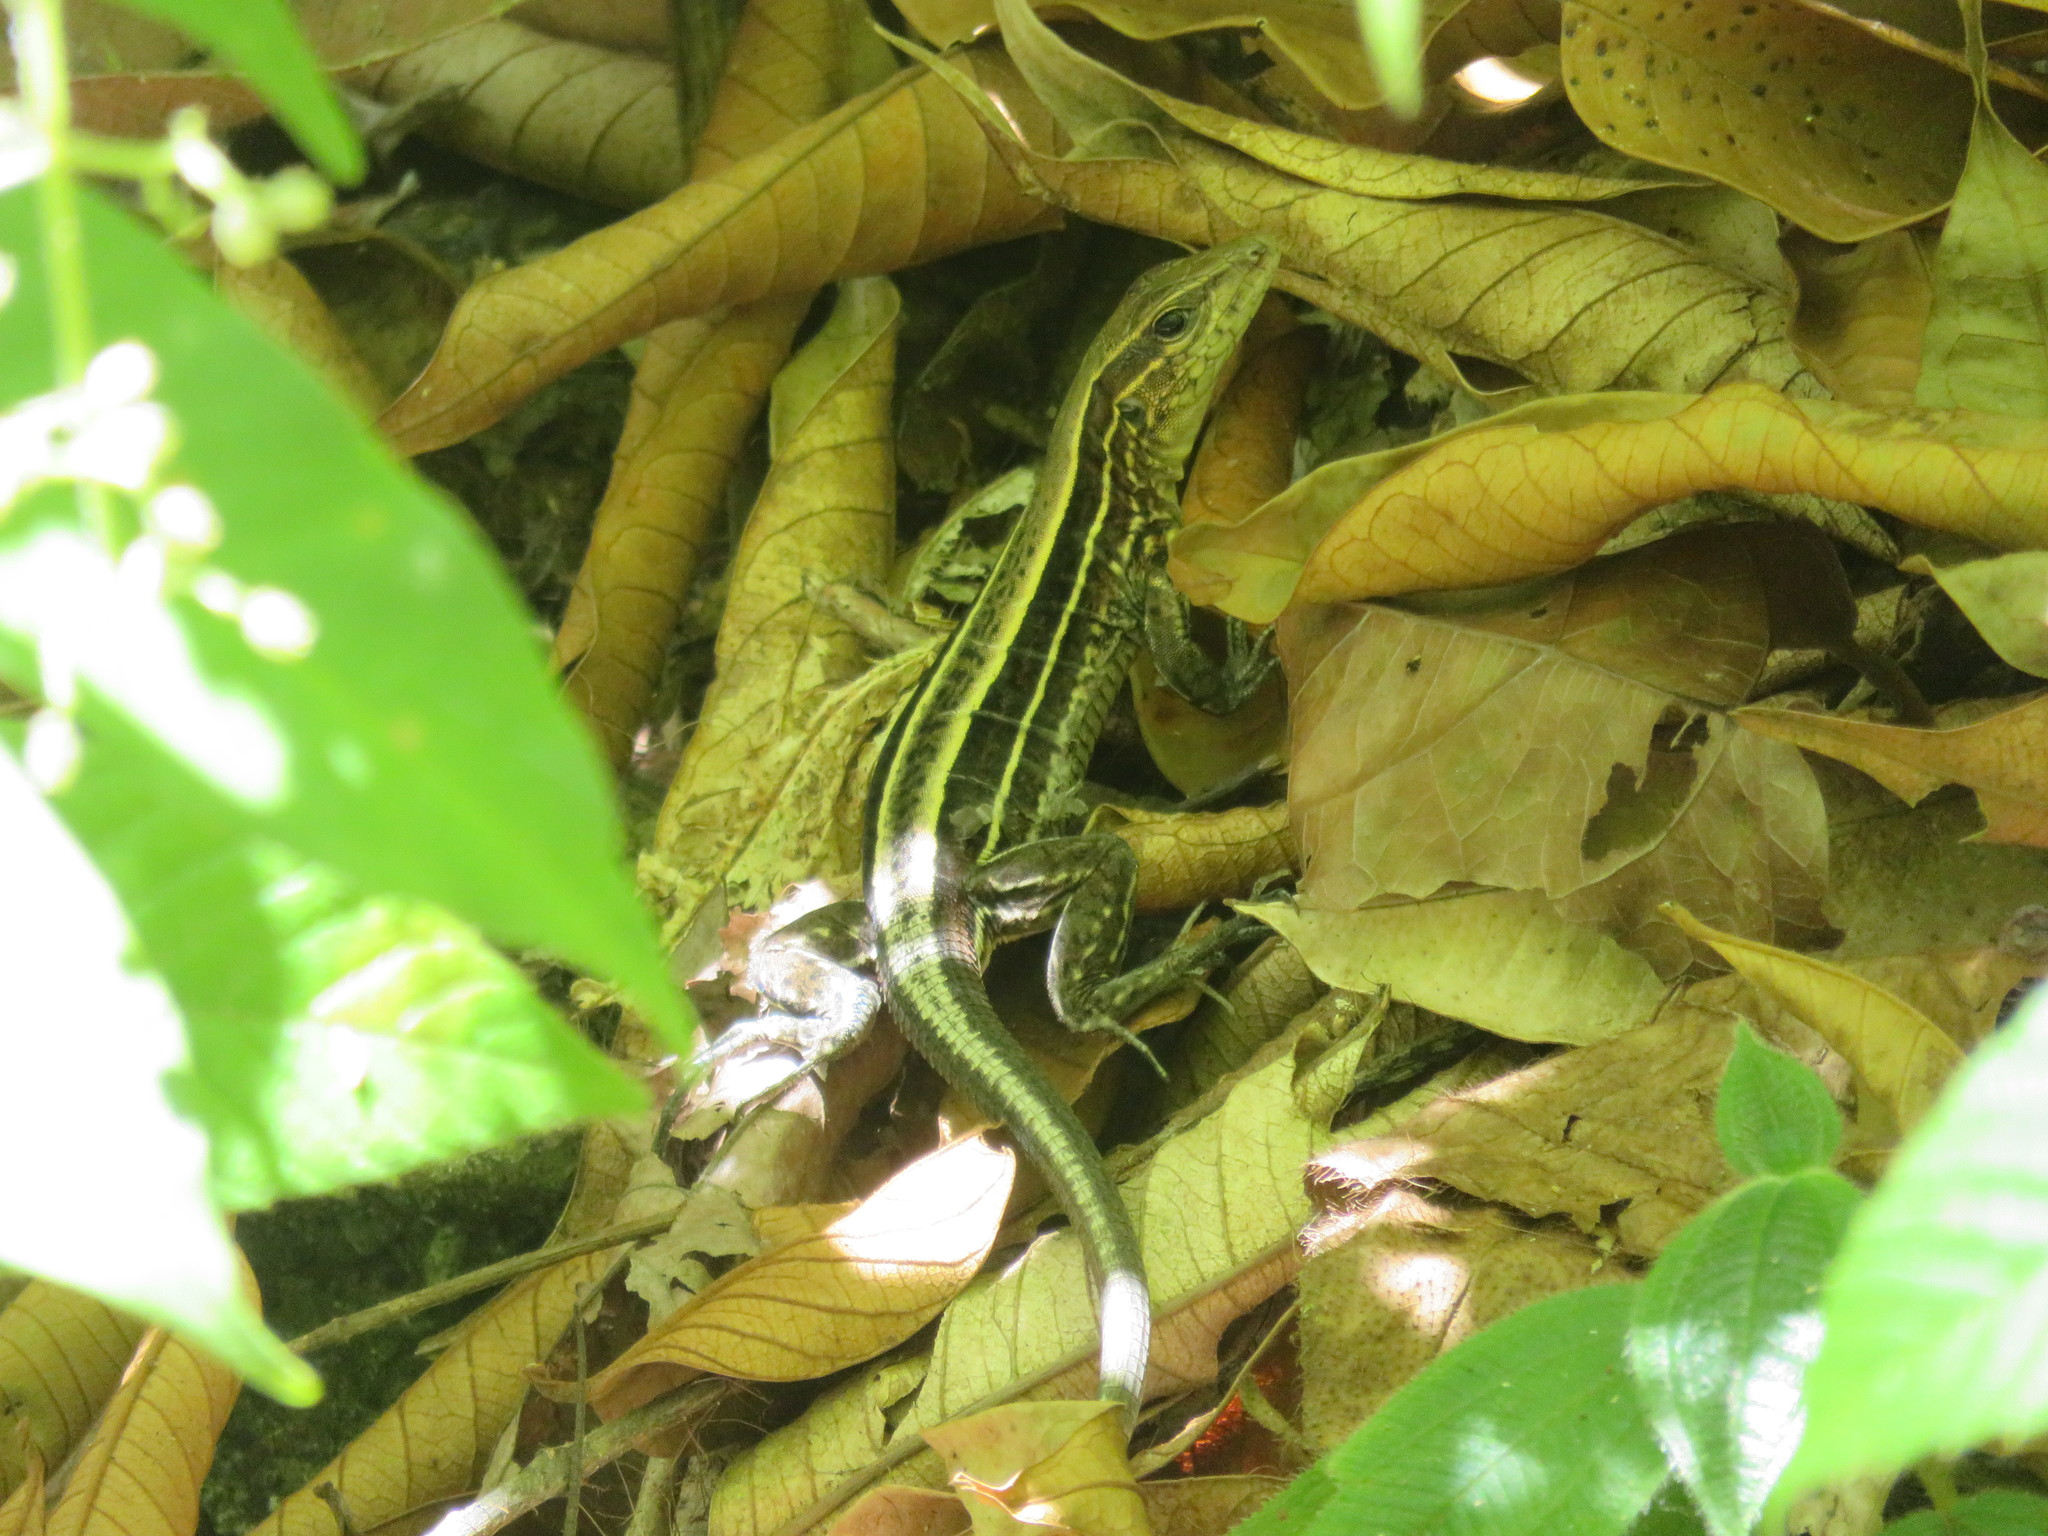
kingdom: Animalia
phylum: Chordata
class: Squamata
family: Teiidae
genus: Holcosus
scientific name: Holcosus quadrilineatus
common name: Four-lined ameiva
